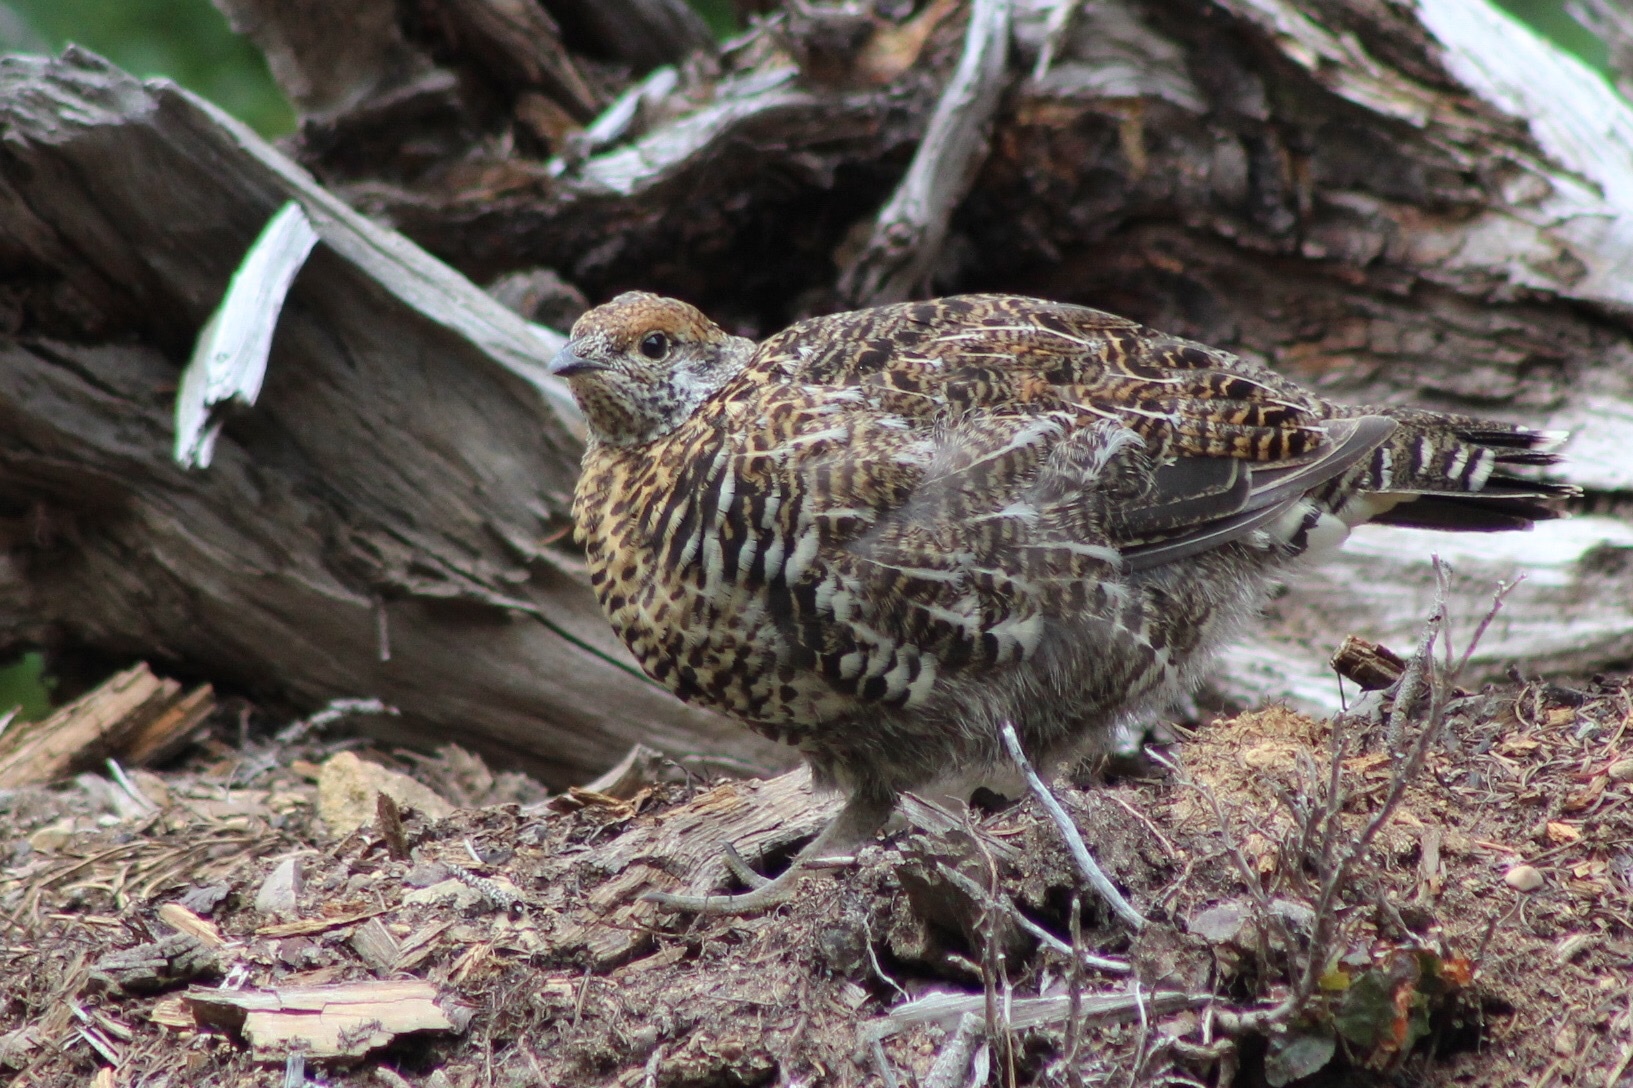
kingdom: Animalia
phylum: Chordata
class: Aves
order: Galliformes
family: Phasianidae
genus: Canachites
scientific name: Canachites canadensis
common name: Spruce grouse
